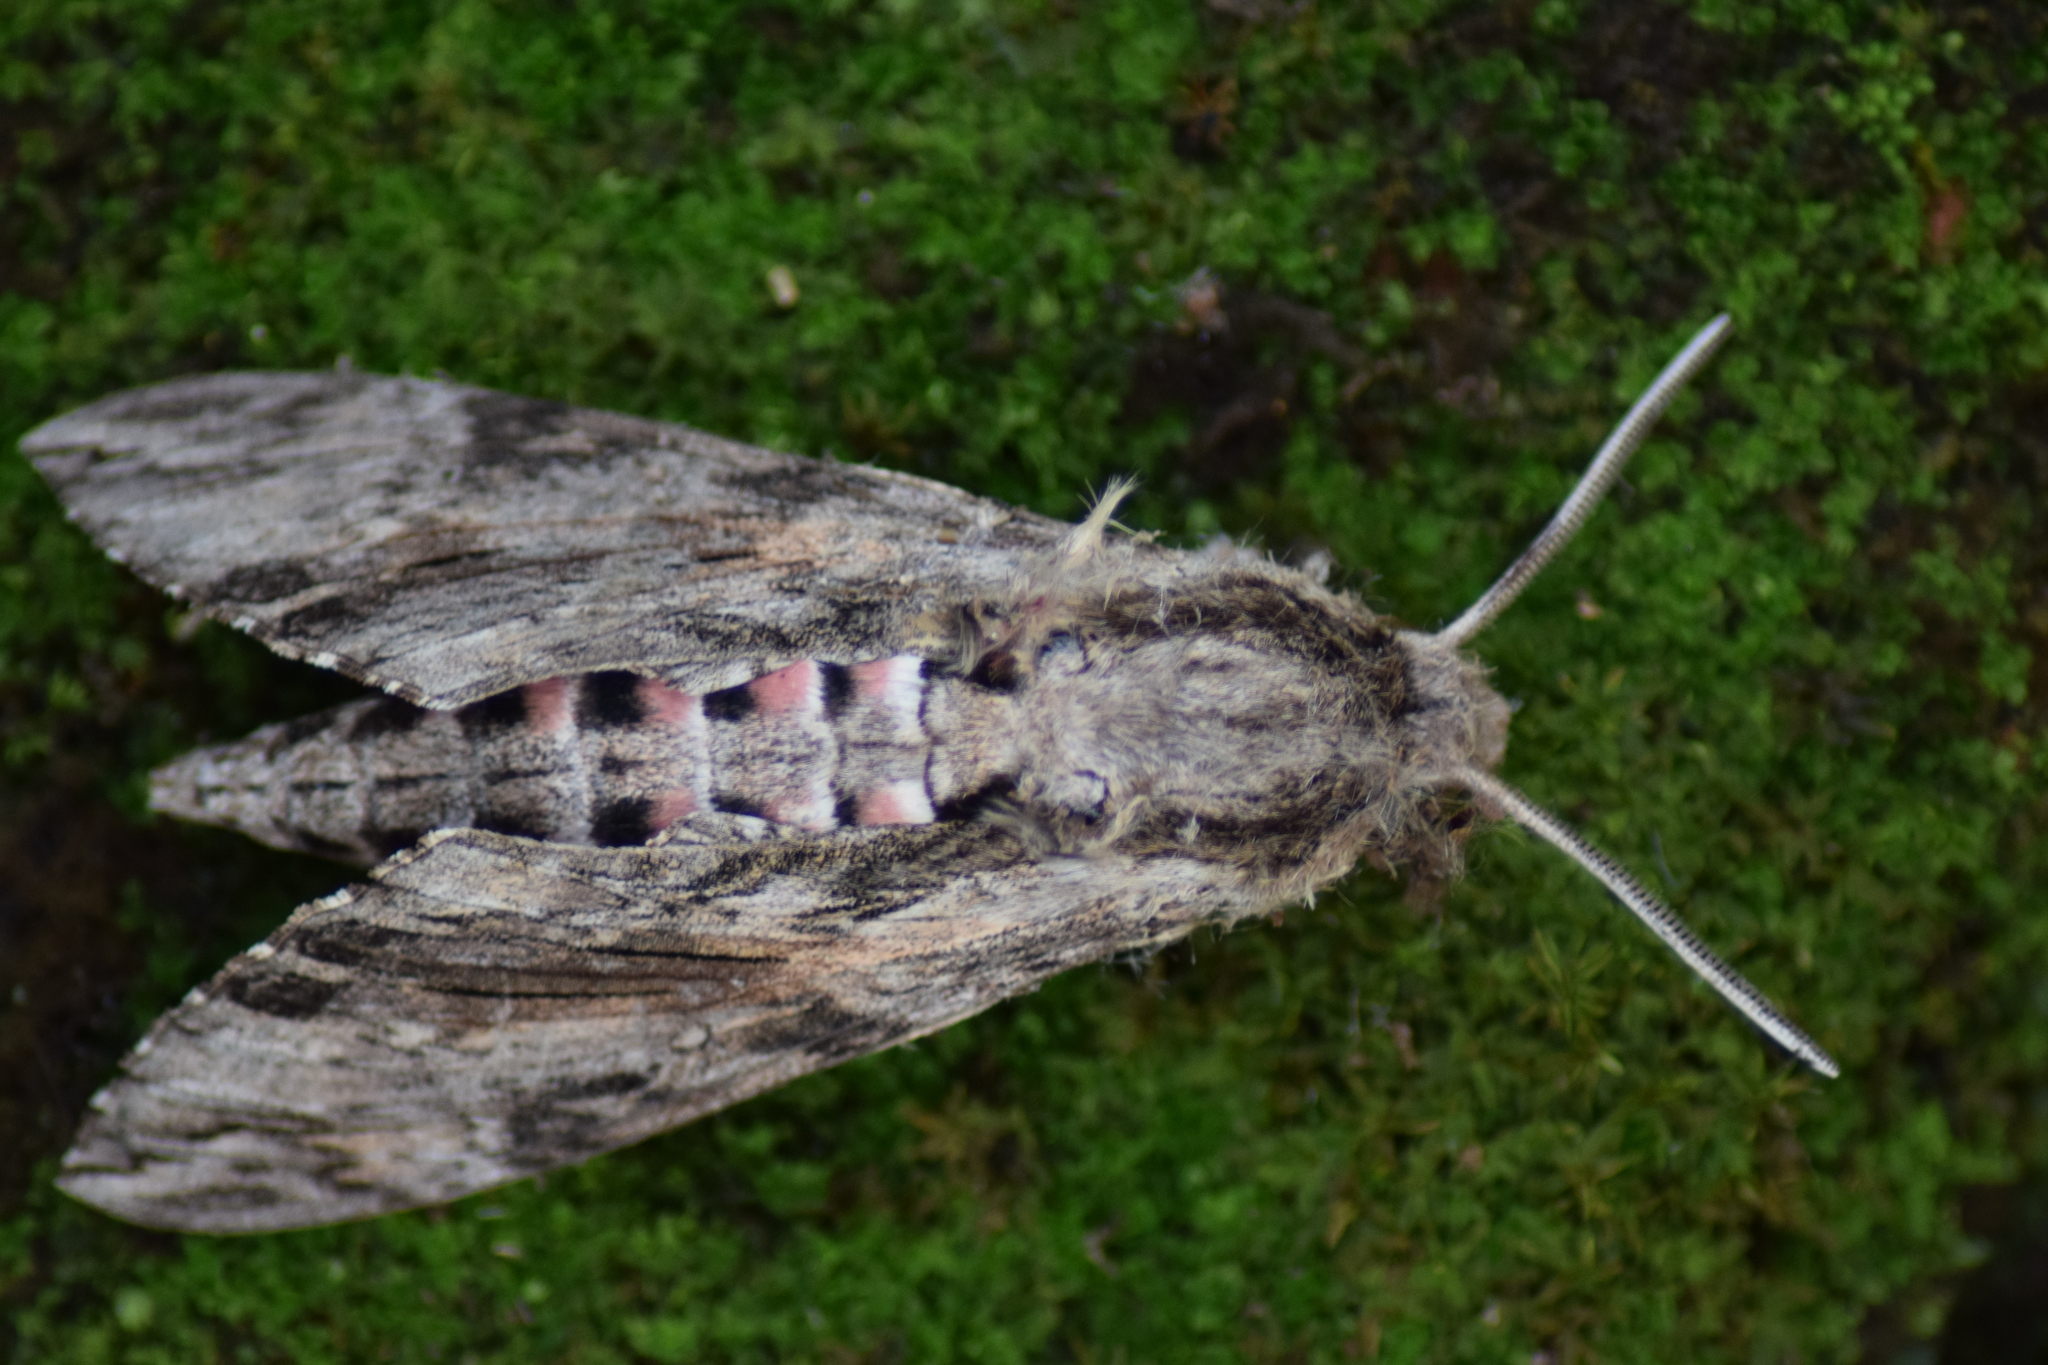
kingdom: Animalia
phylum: Arthropoda
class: Insecta
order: Lepidoptera
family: Sphingidae
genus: Agrius
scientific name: Agrius convolvuli
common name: Convolvulus hawkmoth
